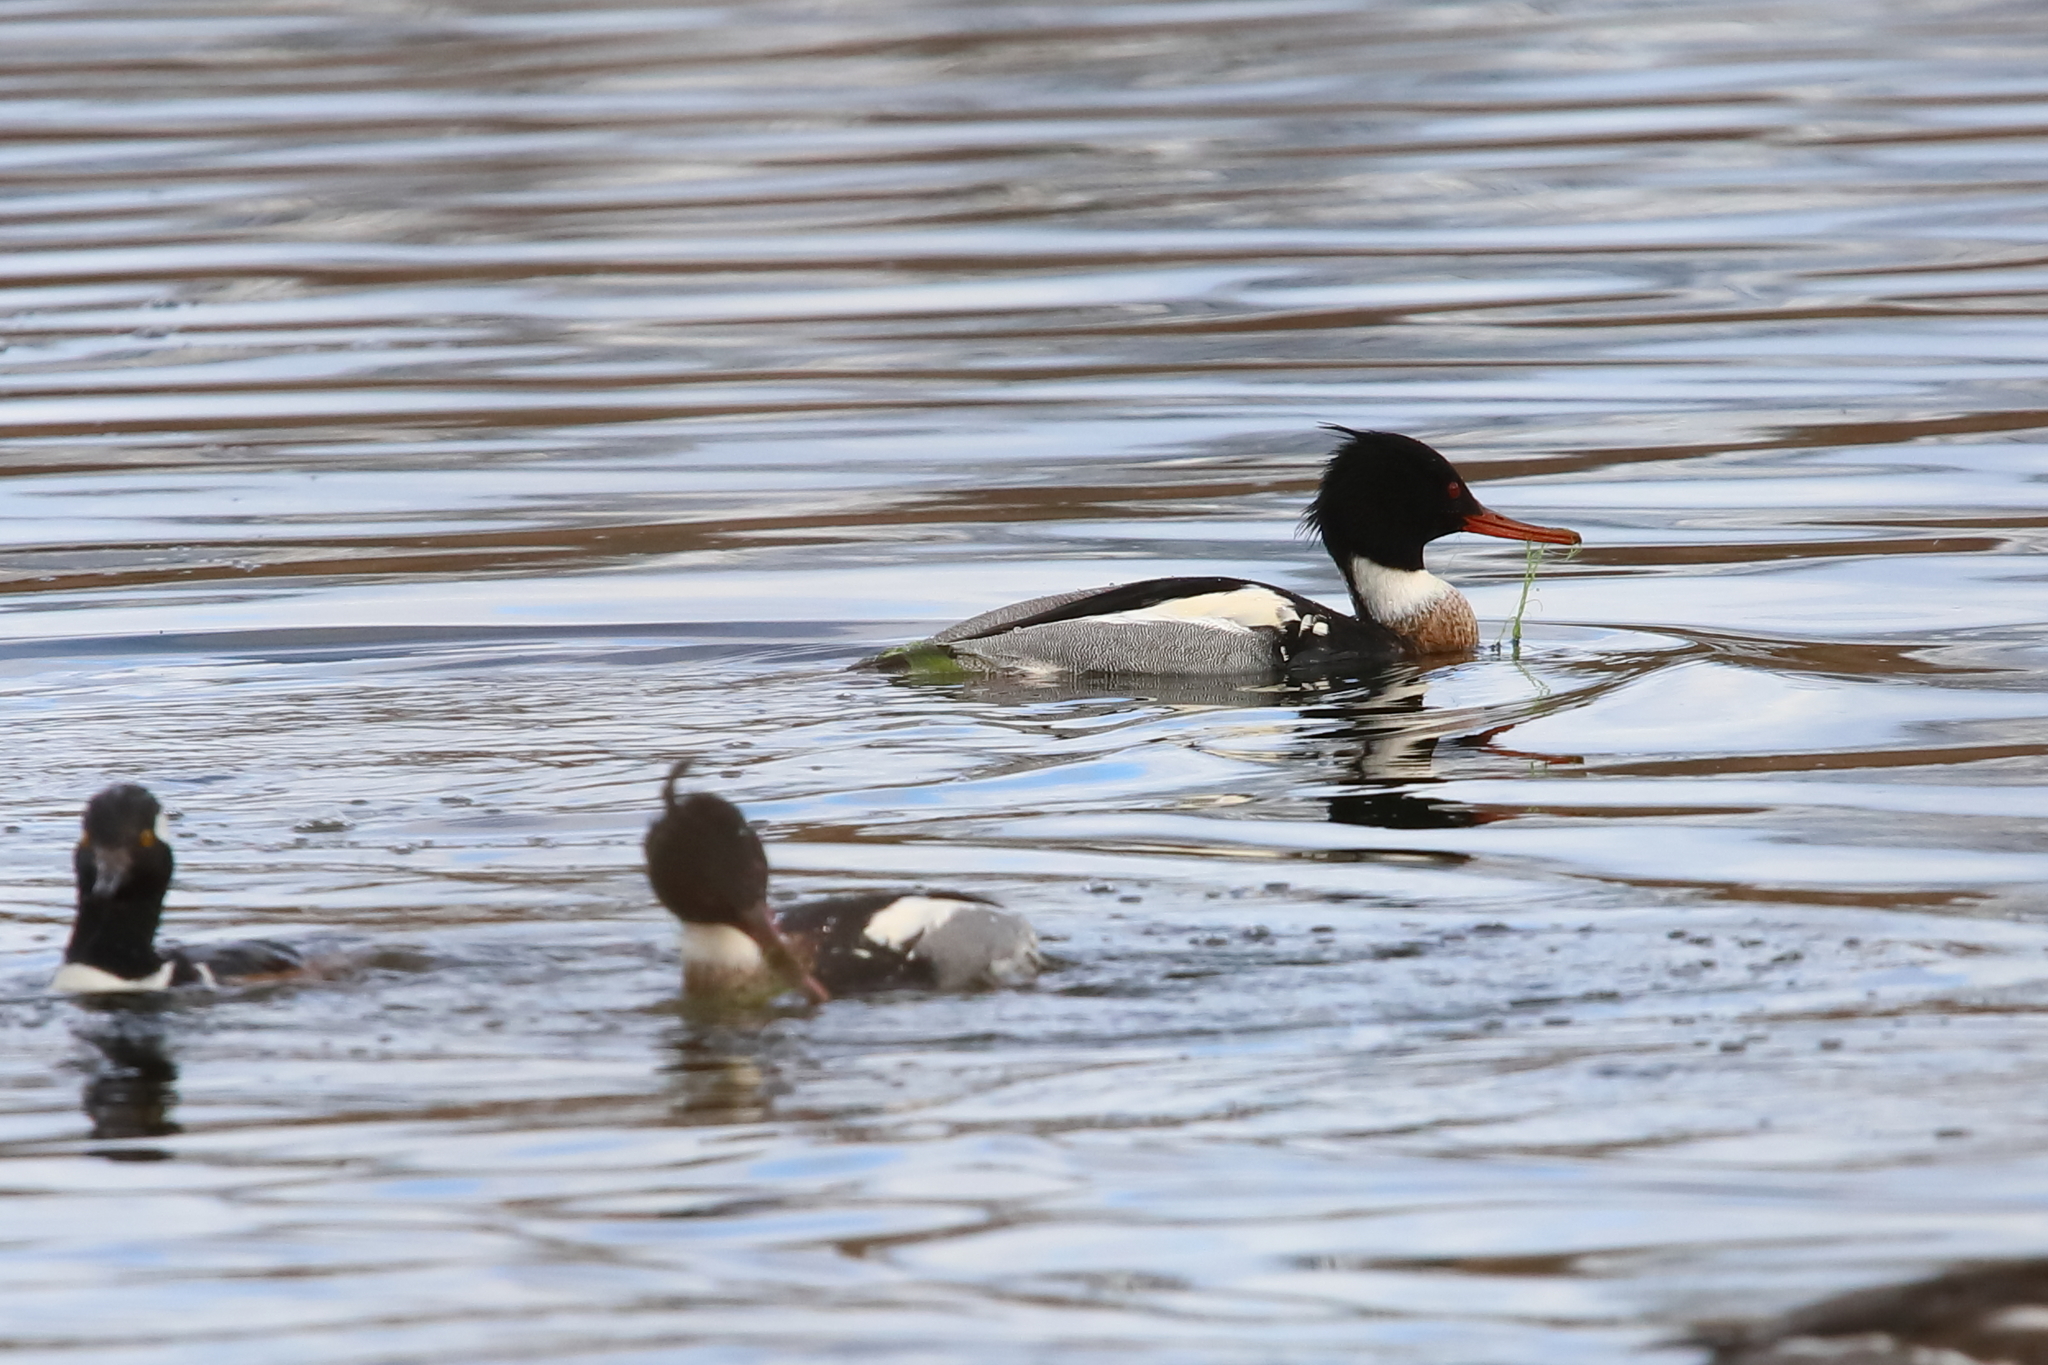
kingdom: Animalia
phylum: Chordata
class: Aves
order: Anseriformes
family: Anatidae
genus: Mergus
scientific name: Mergus serrator
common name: Red-breasted merganser
